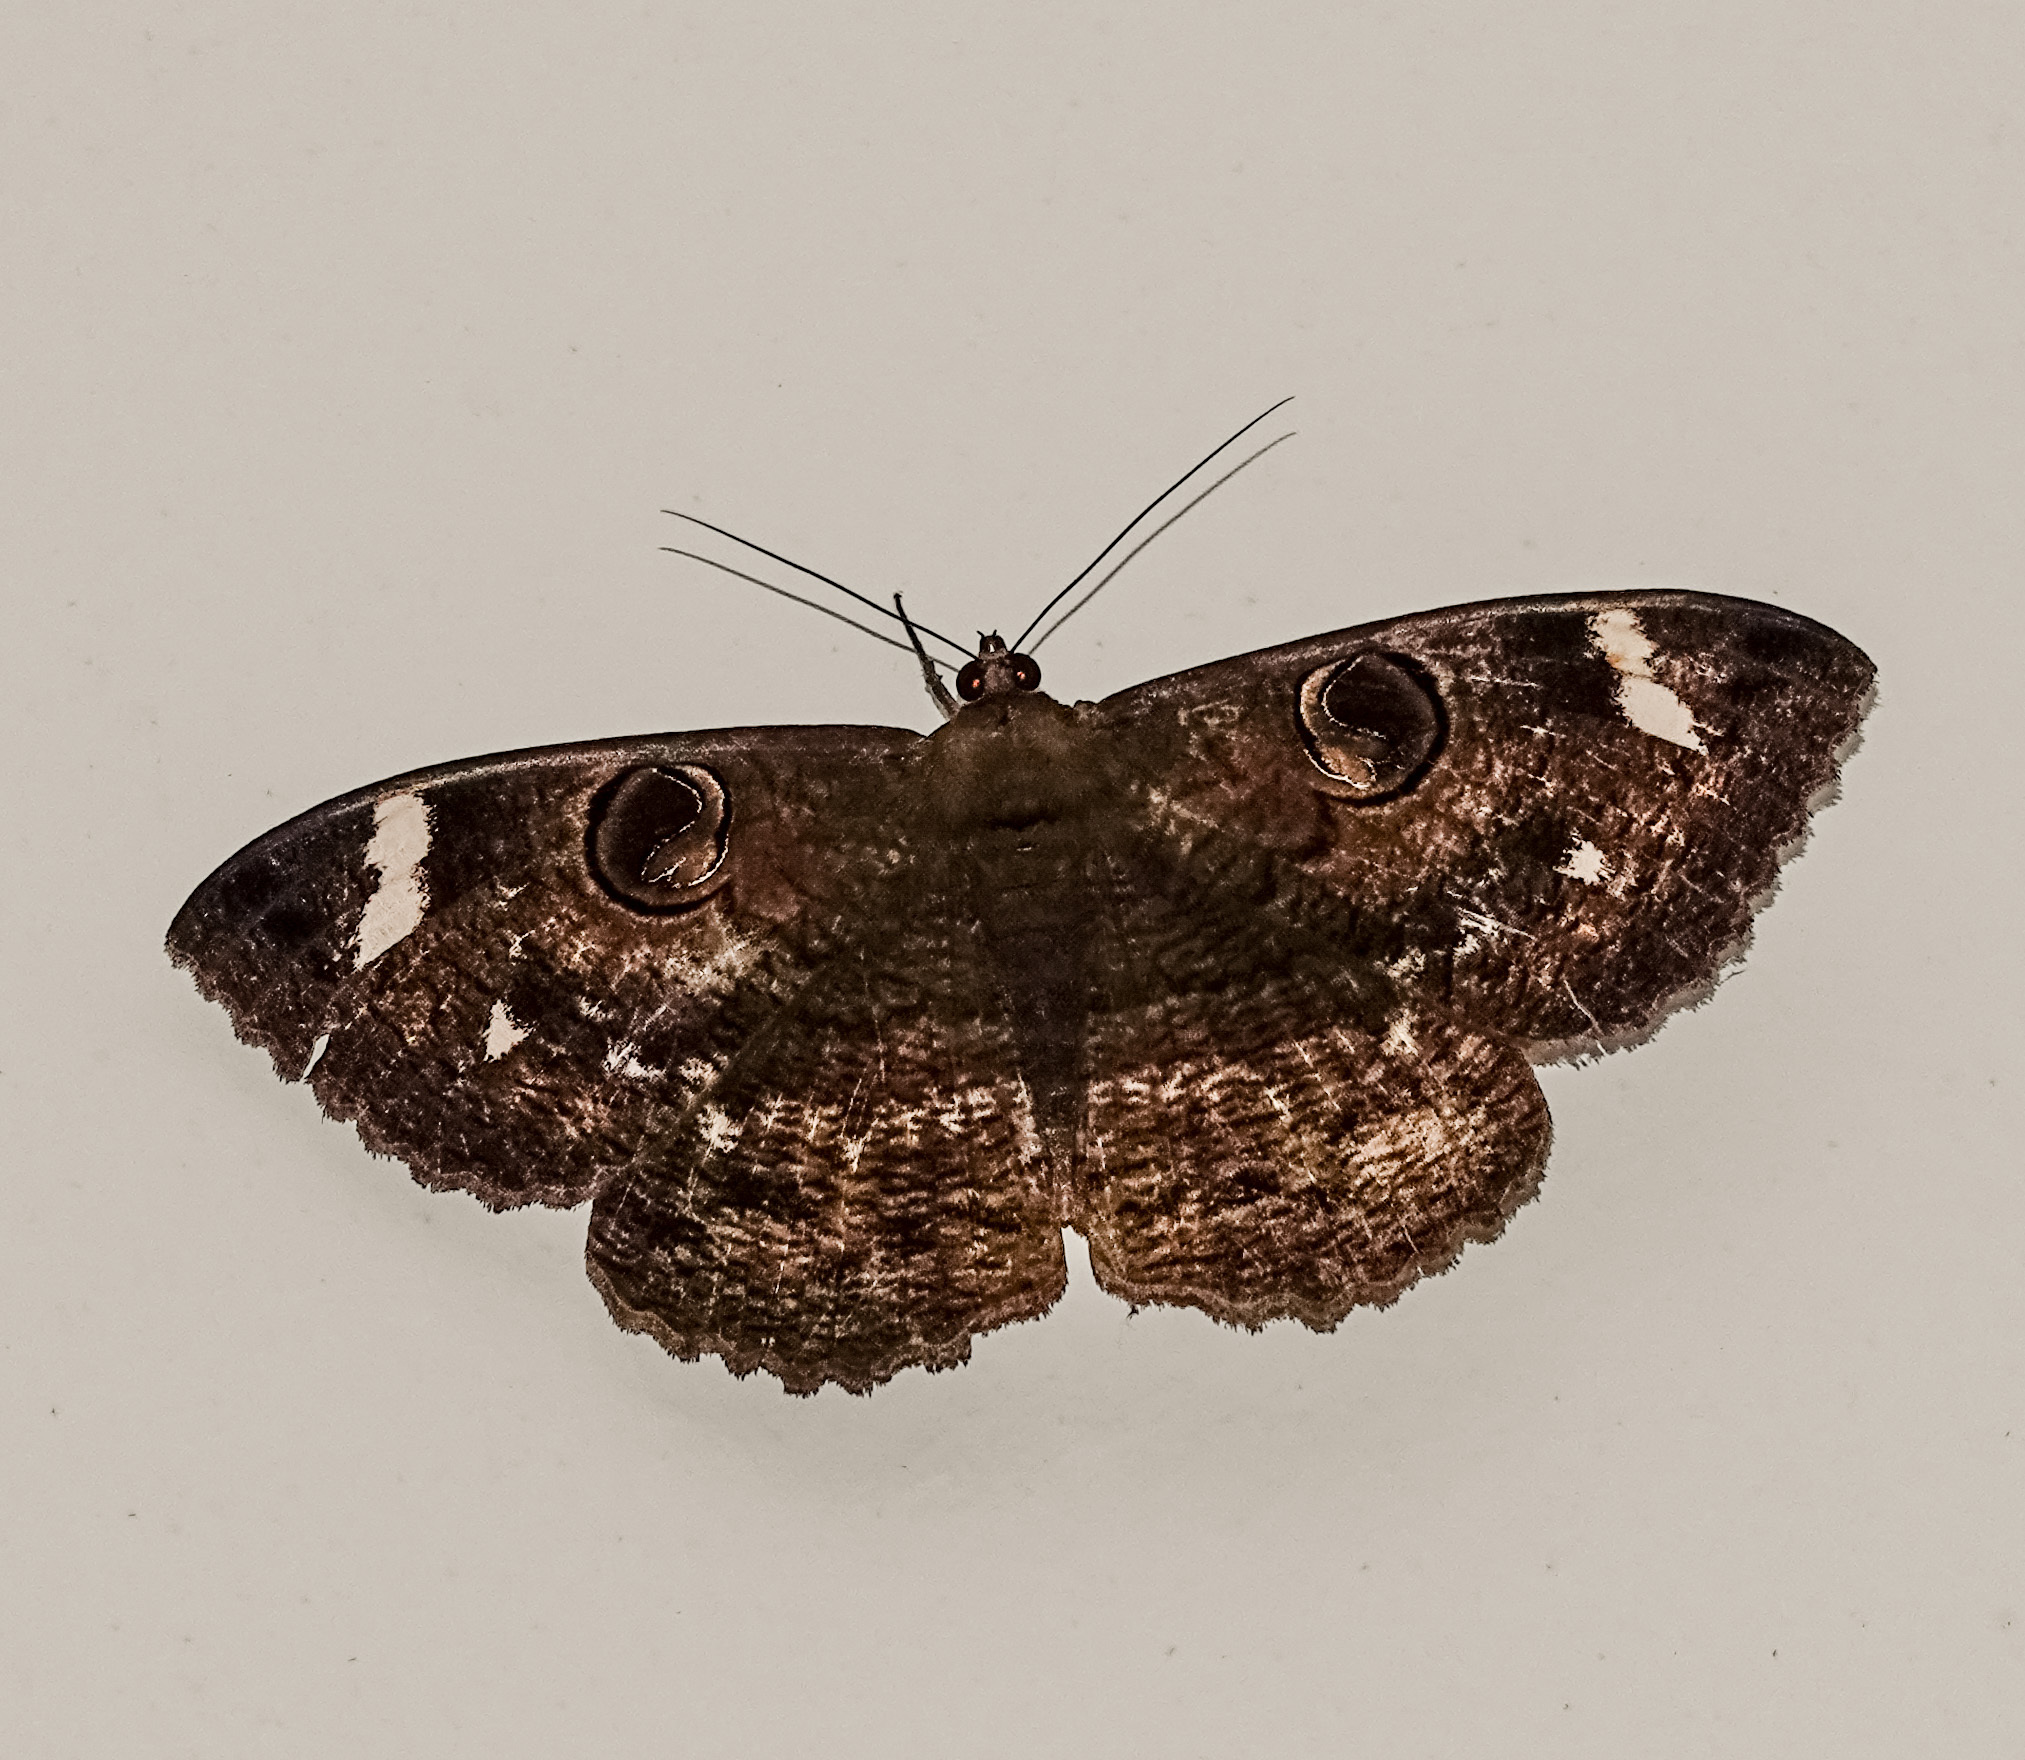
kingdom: Animalia
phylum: Arthropoda
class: Insecta
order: Lepidoptera
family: Erebidae
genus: Erebus
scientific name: Erebus hieroglyphica
